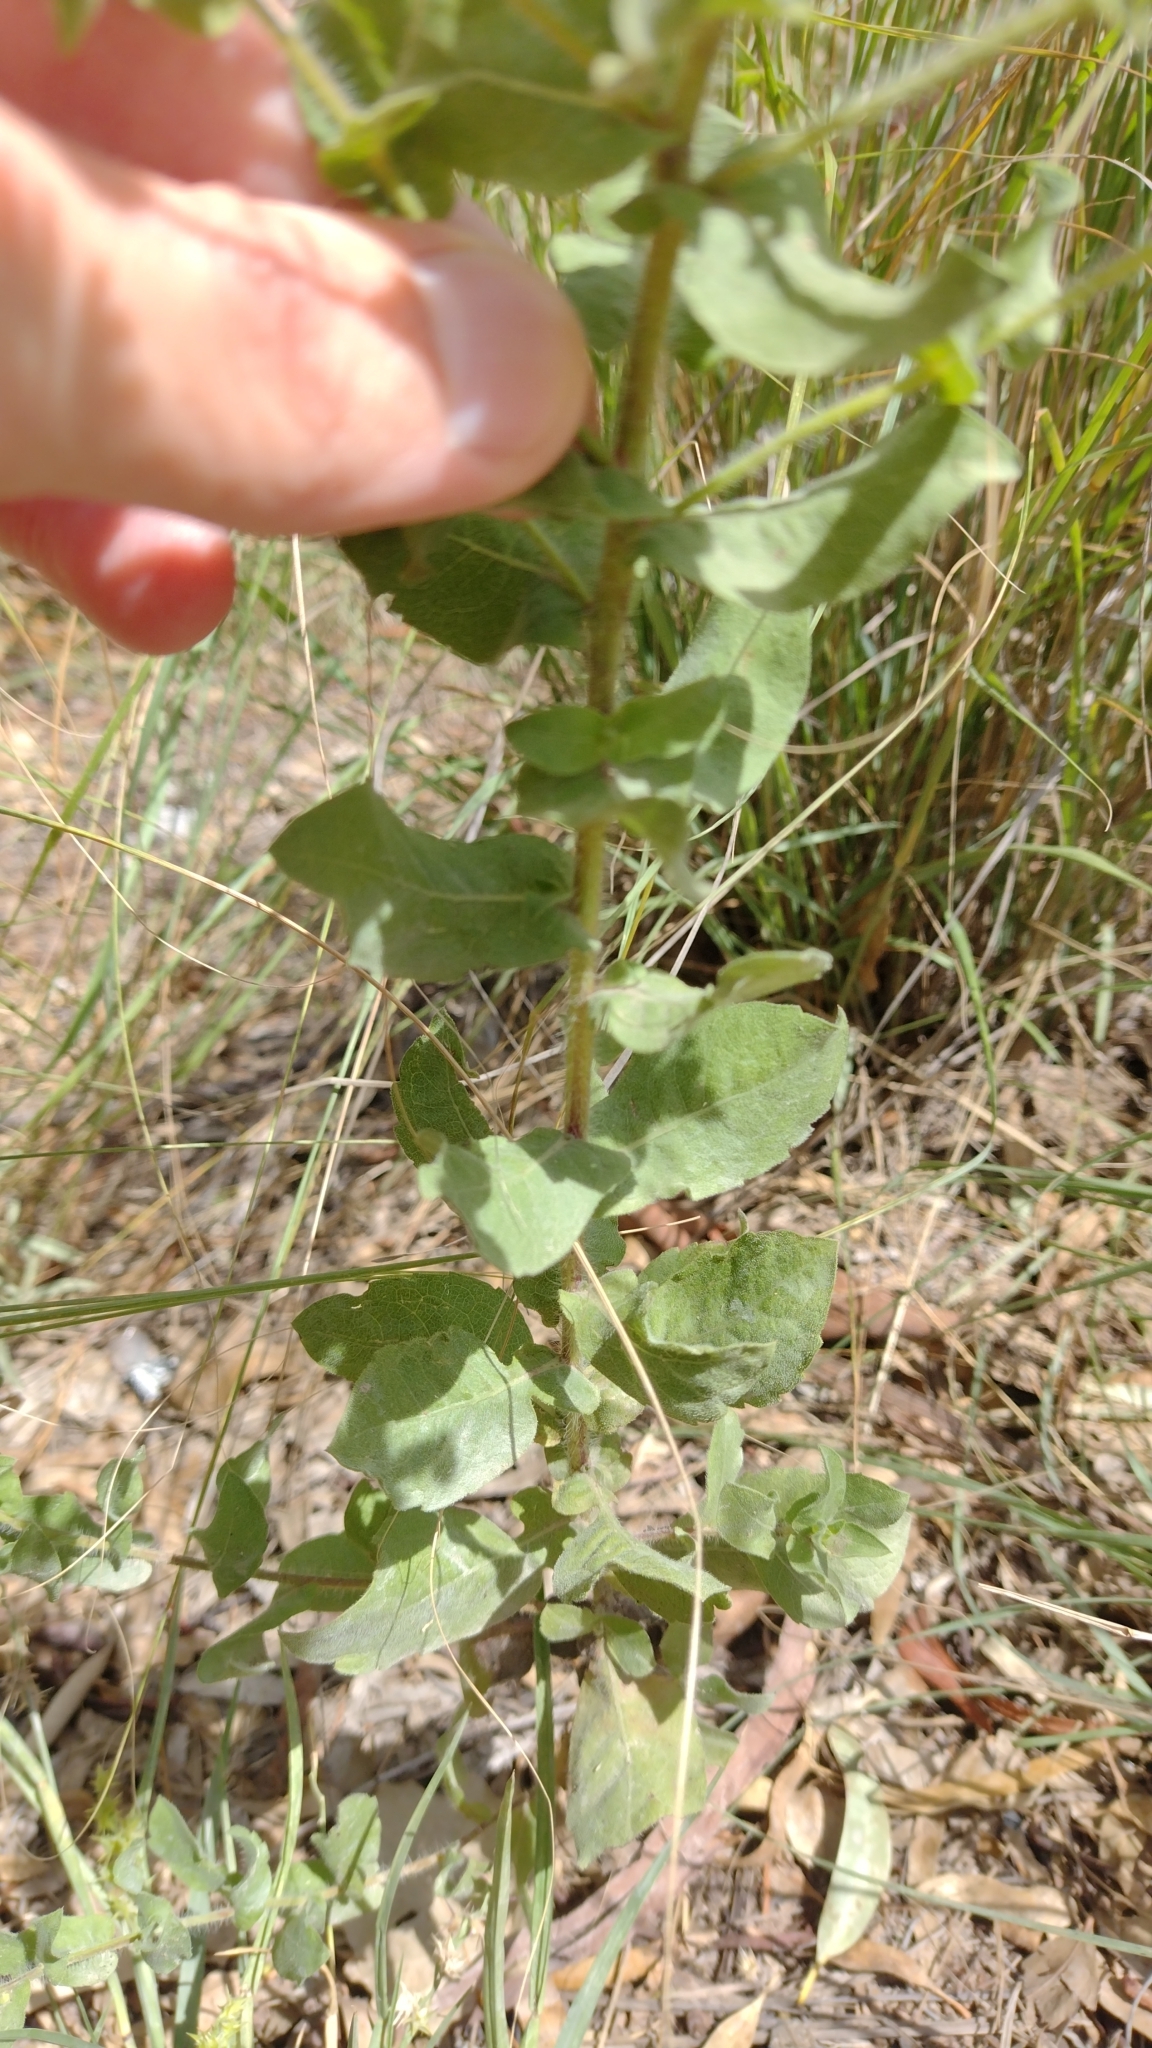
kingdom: Plantae
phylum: Tracheophyta
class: Magnoliopsida
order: Asterales
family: Asteraceae
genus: Heterotheca
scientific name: Heterotheca subaxillaris
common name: Camphorweed
